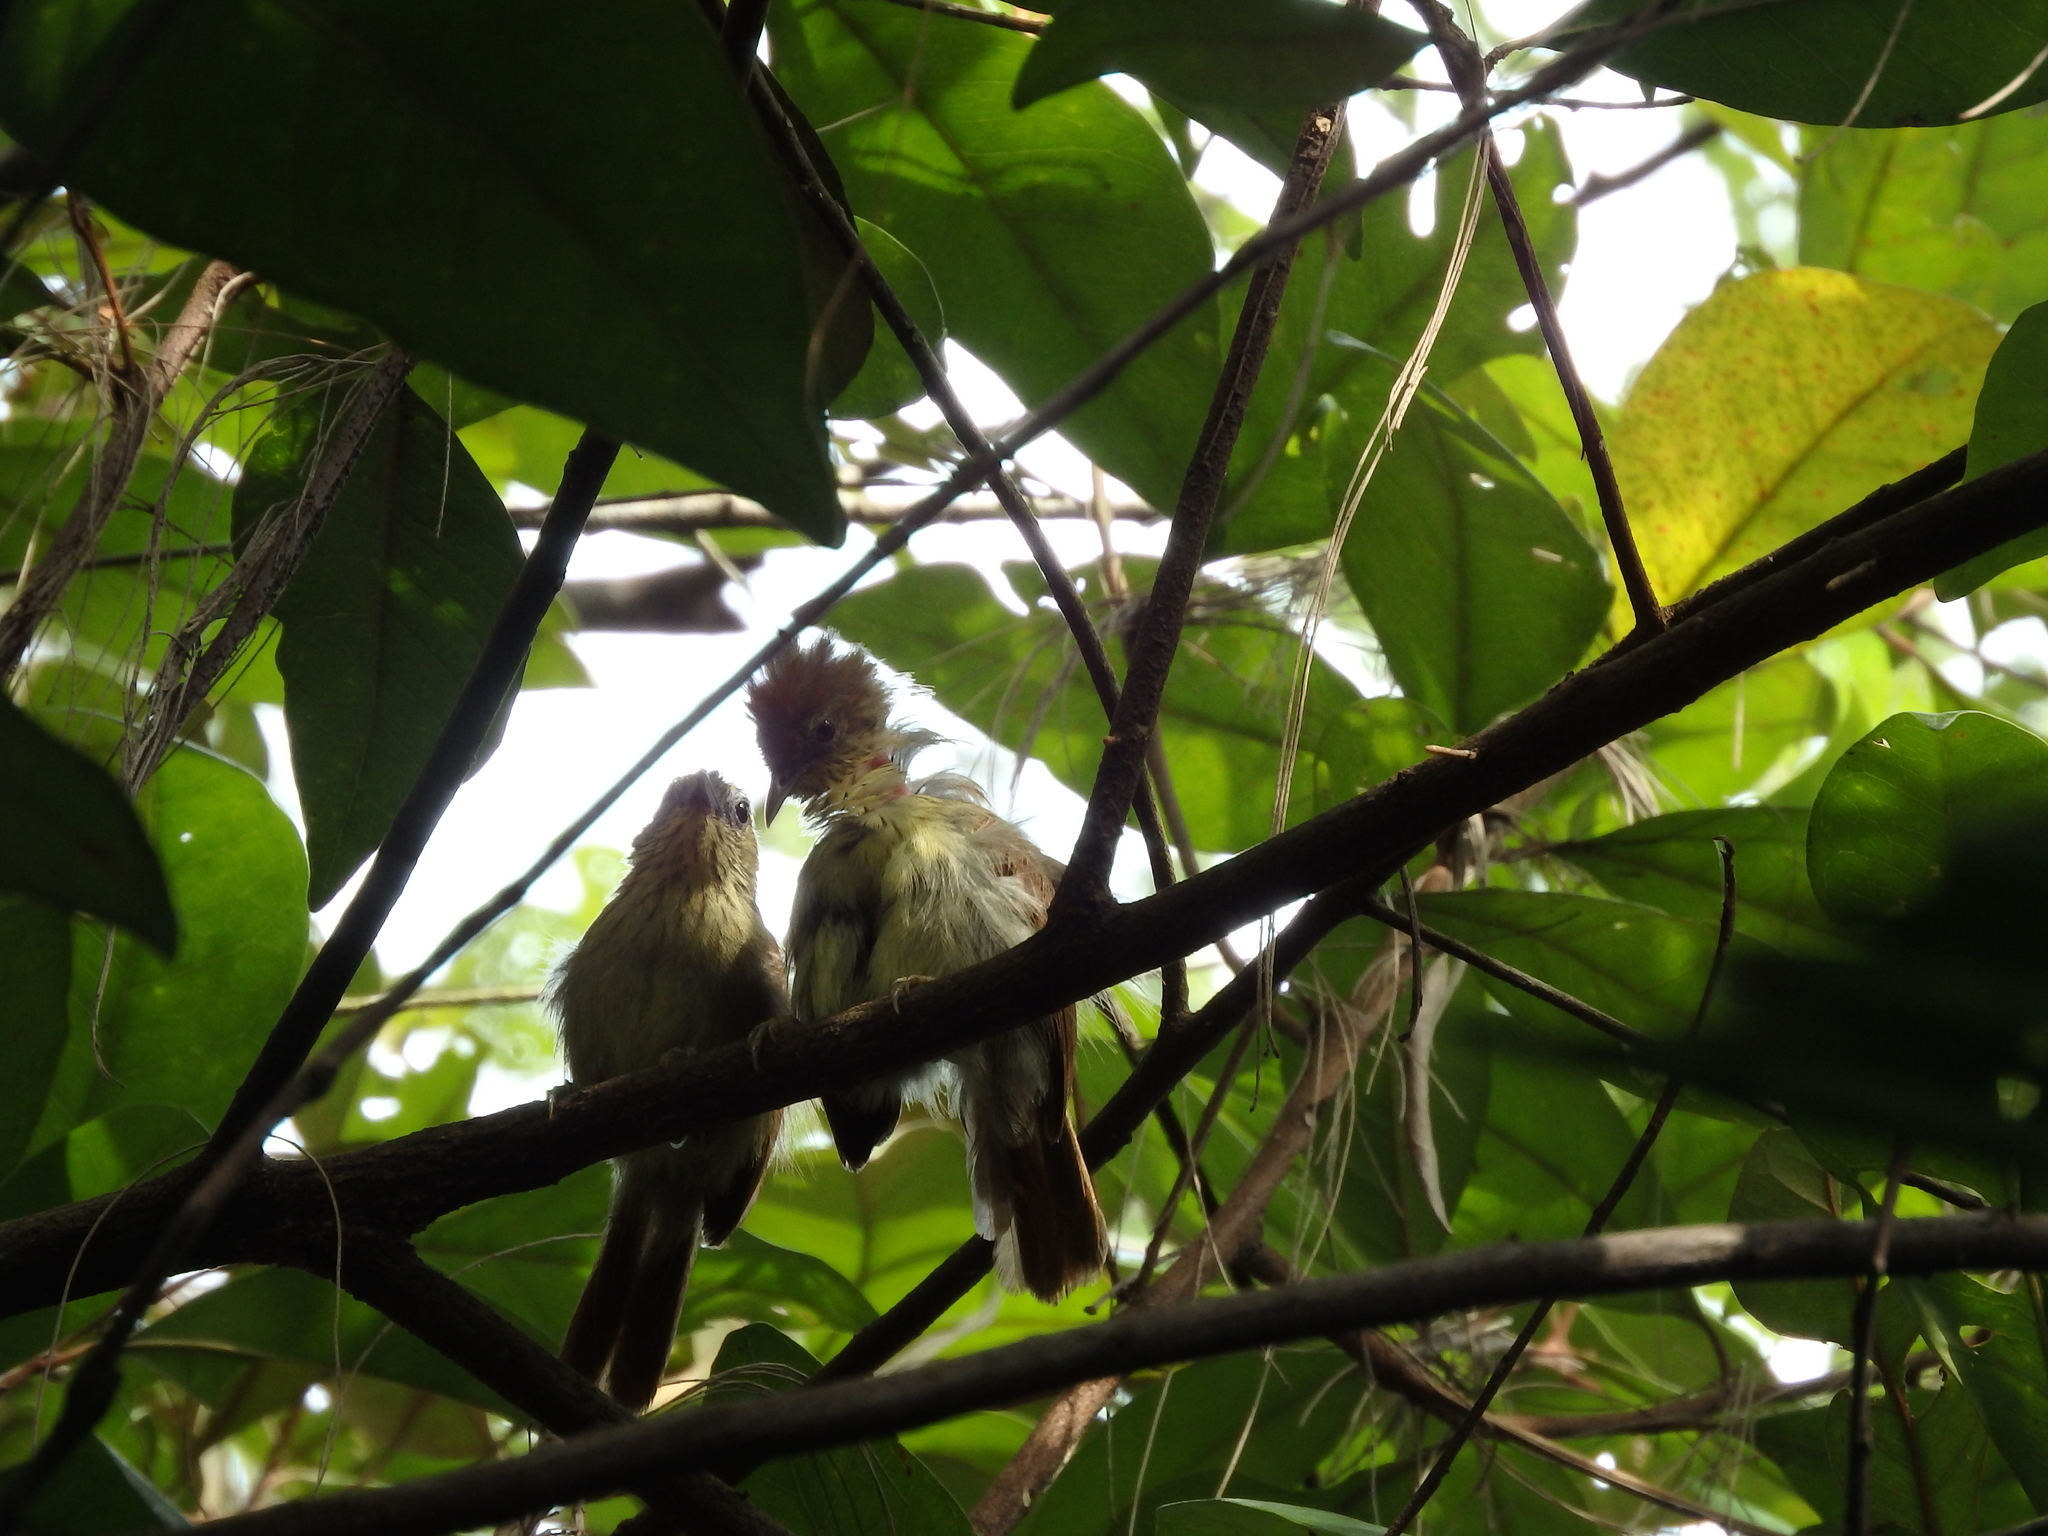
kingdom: Animalia
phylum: Chordata
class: Aves
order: Passeriformes
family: Timaliidae
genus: Macronus
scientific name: Macronus gularis
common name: Striped tit-babbler
